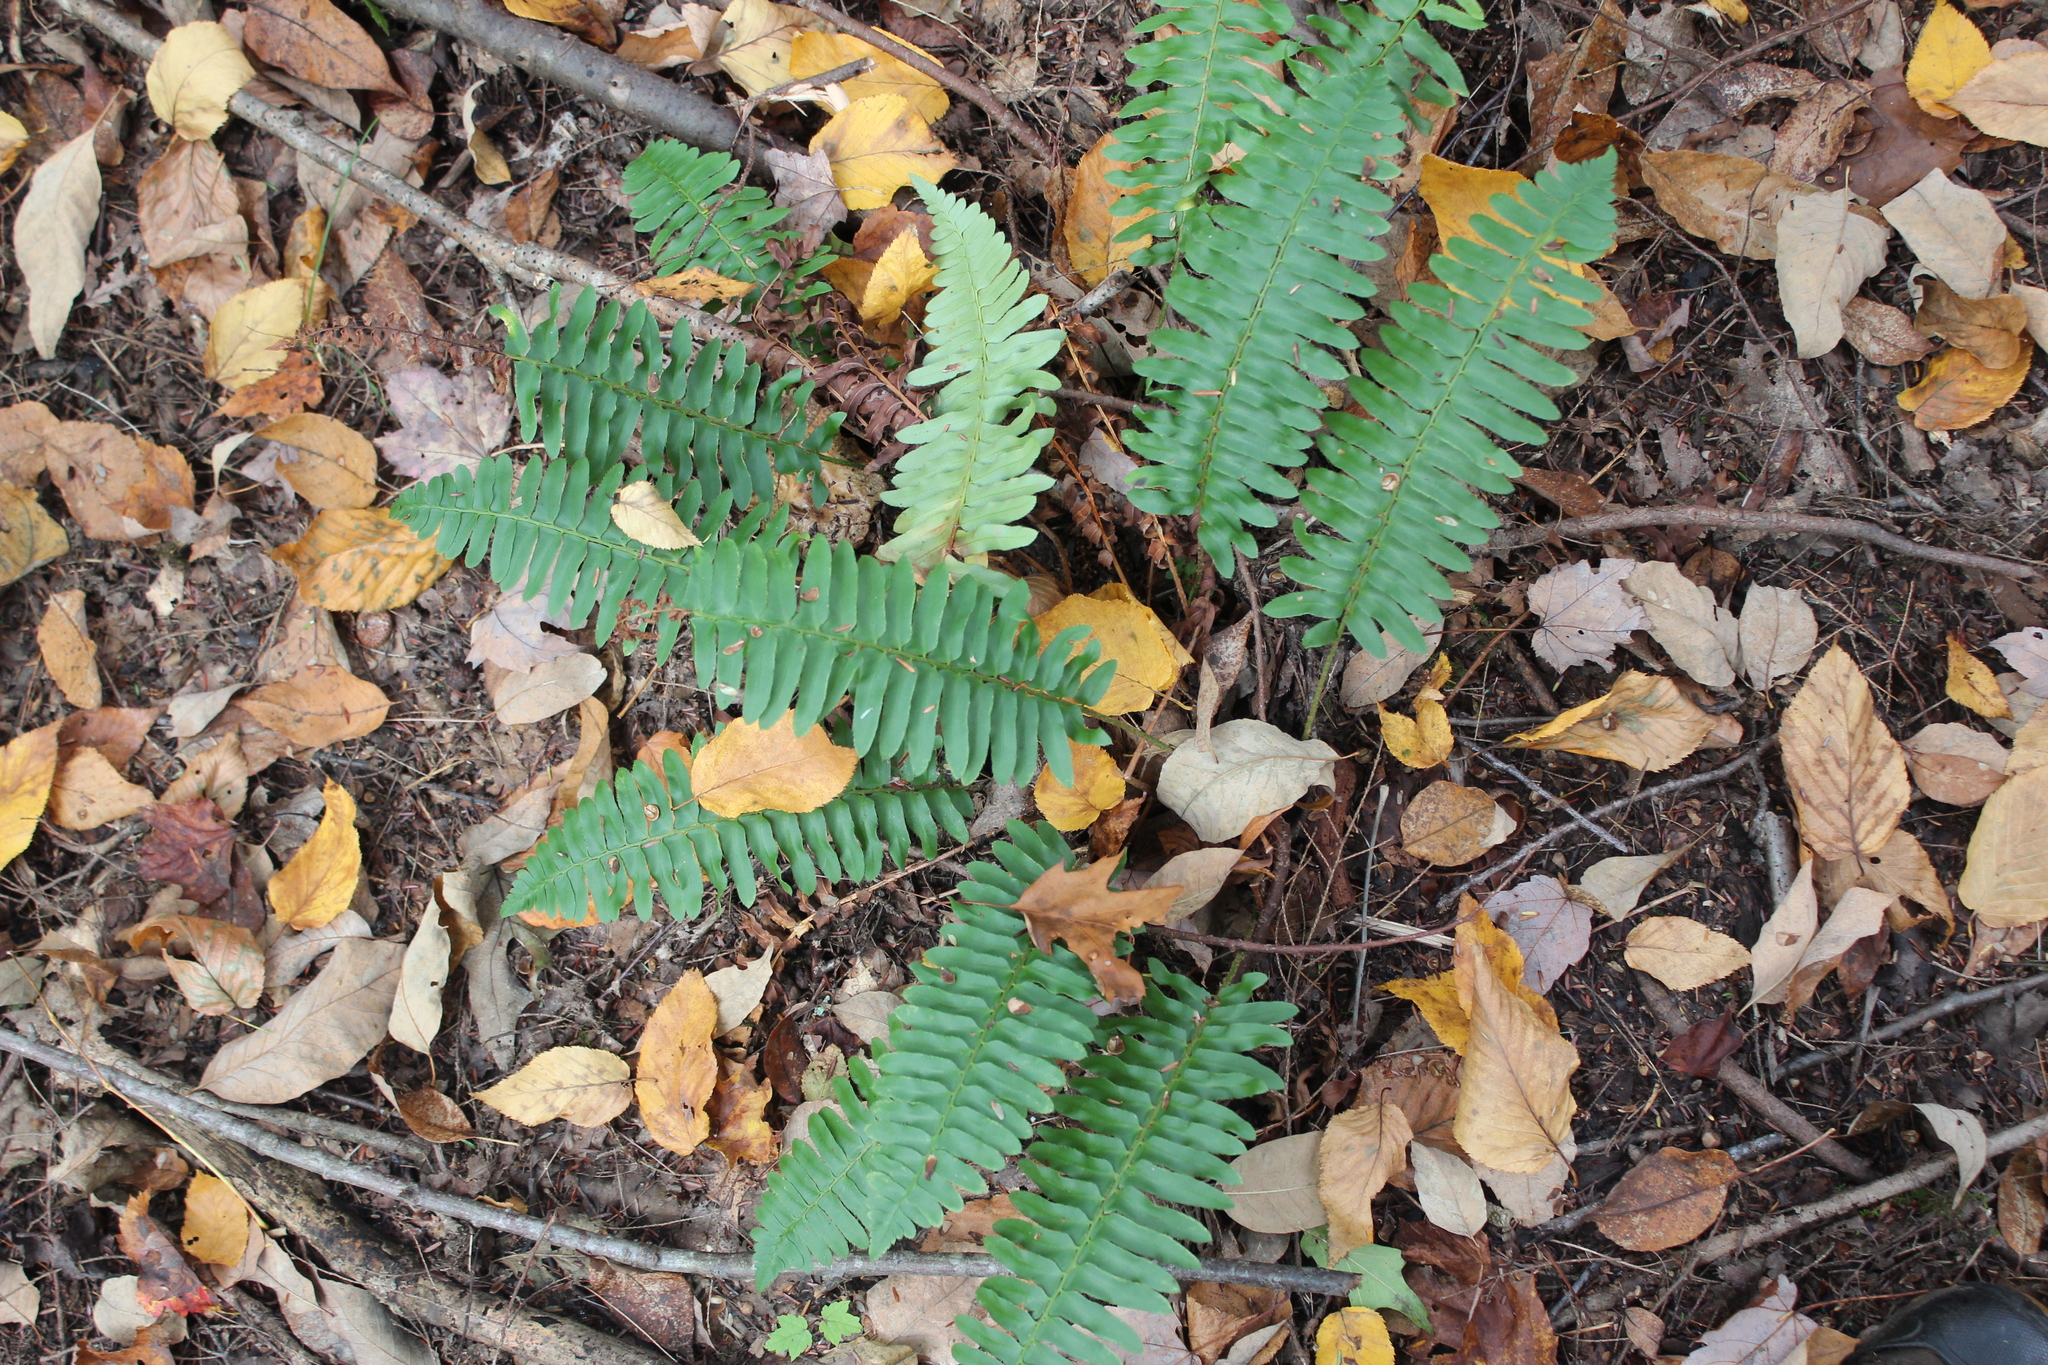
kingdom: Plantae
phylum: Tracheophyta
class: Polypodiopsida
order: Polypodiales
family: Dryopteridaceae
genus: Polystichum
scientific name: Polystichum acrostichoides
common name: Christmas fern
